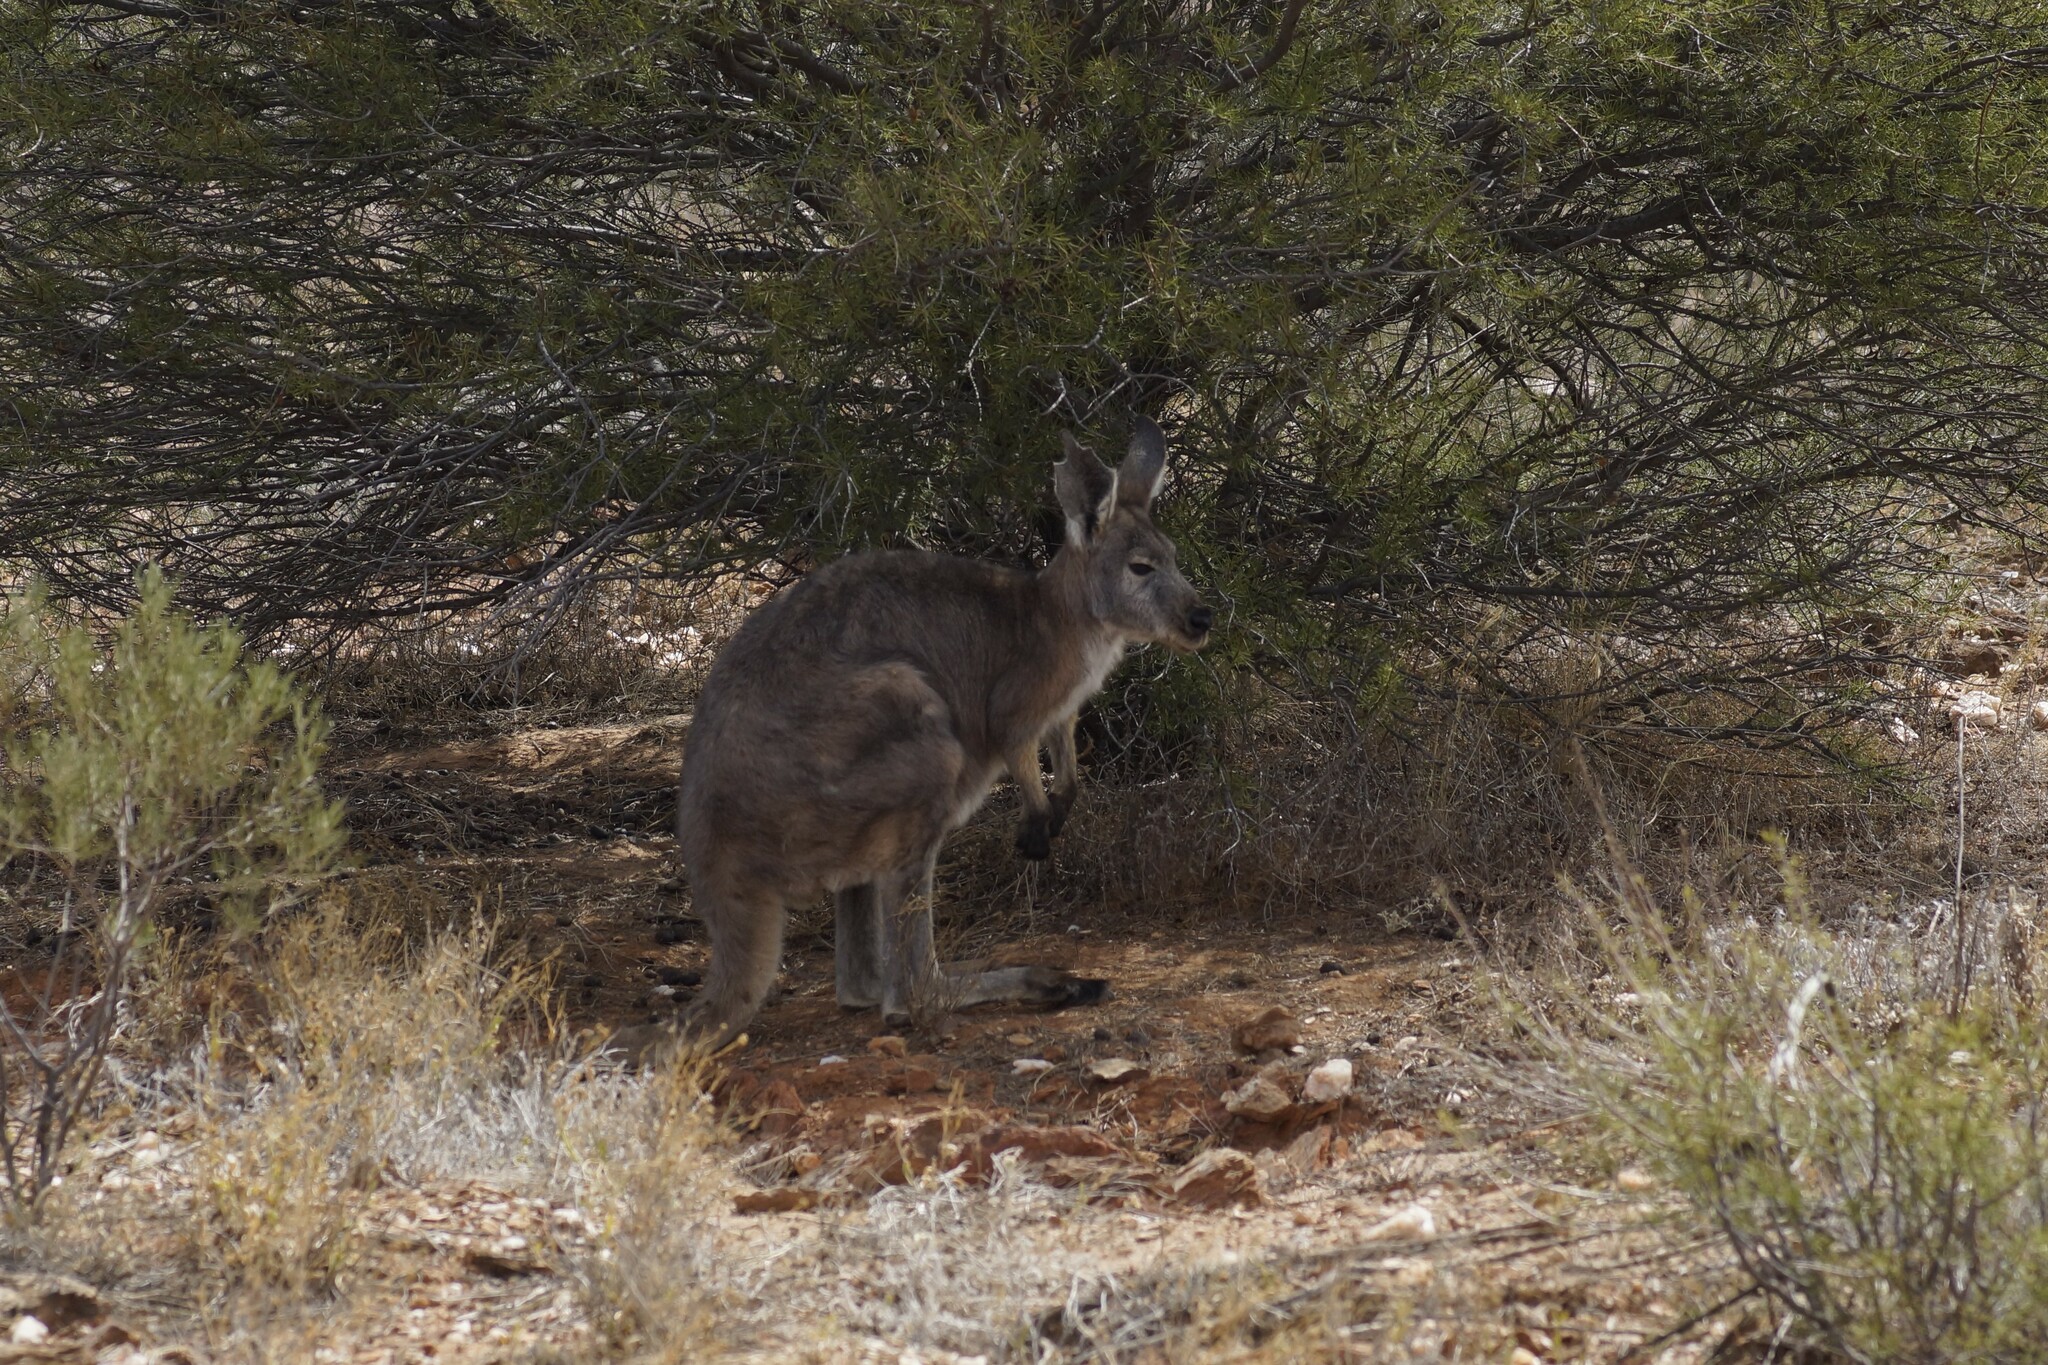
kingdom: Animalia
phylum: Chordata
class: Mammalia
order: Diprotodontia
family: Macropodidae
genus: Macropus
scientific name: Macropus robustus
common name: Eastern wallaroo
